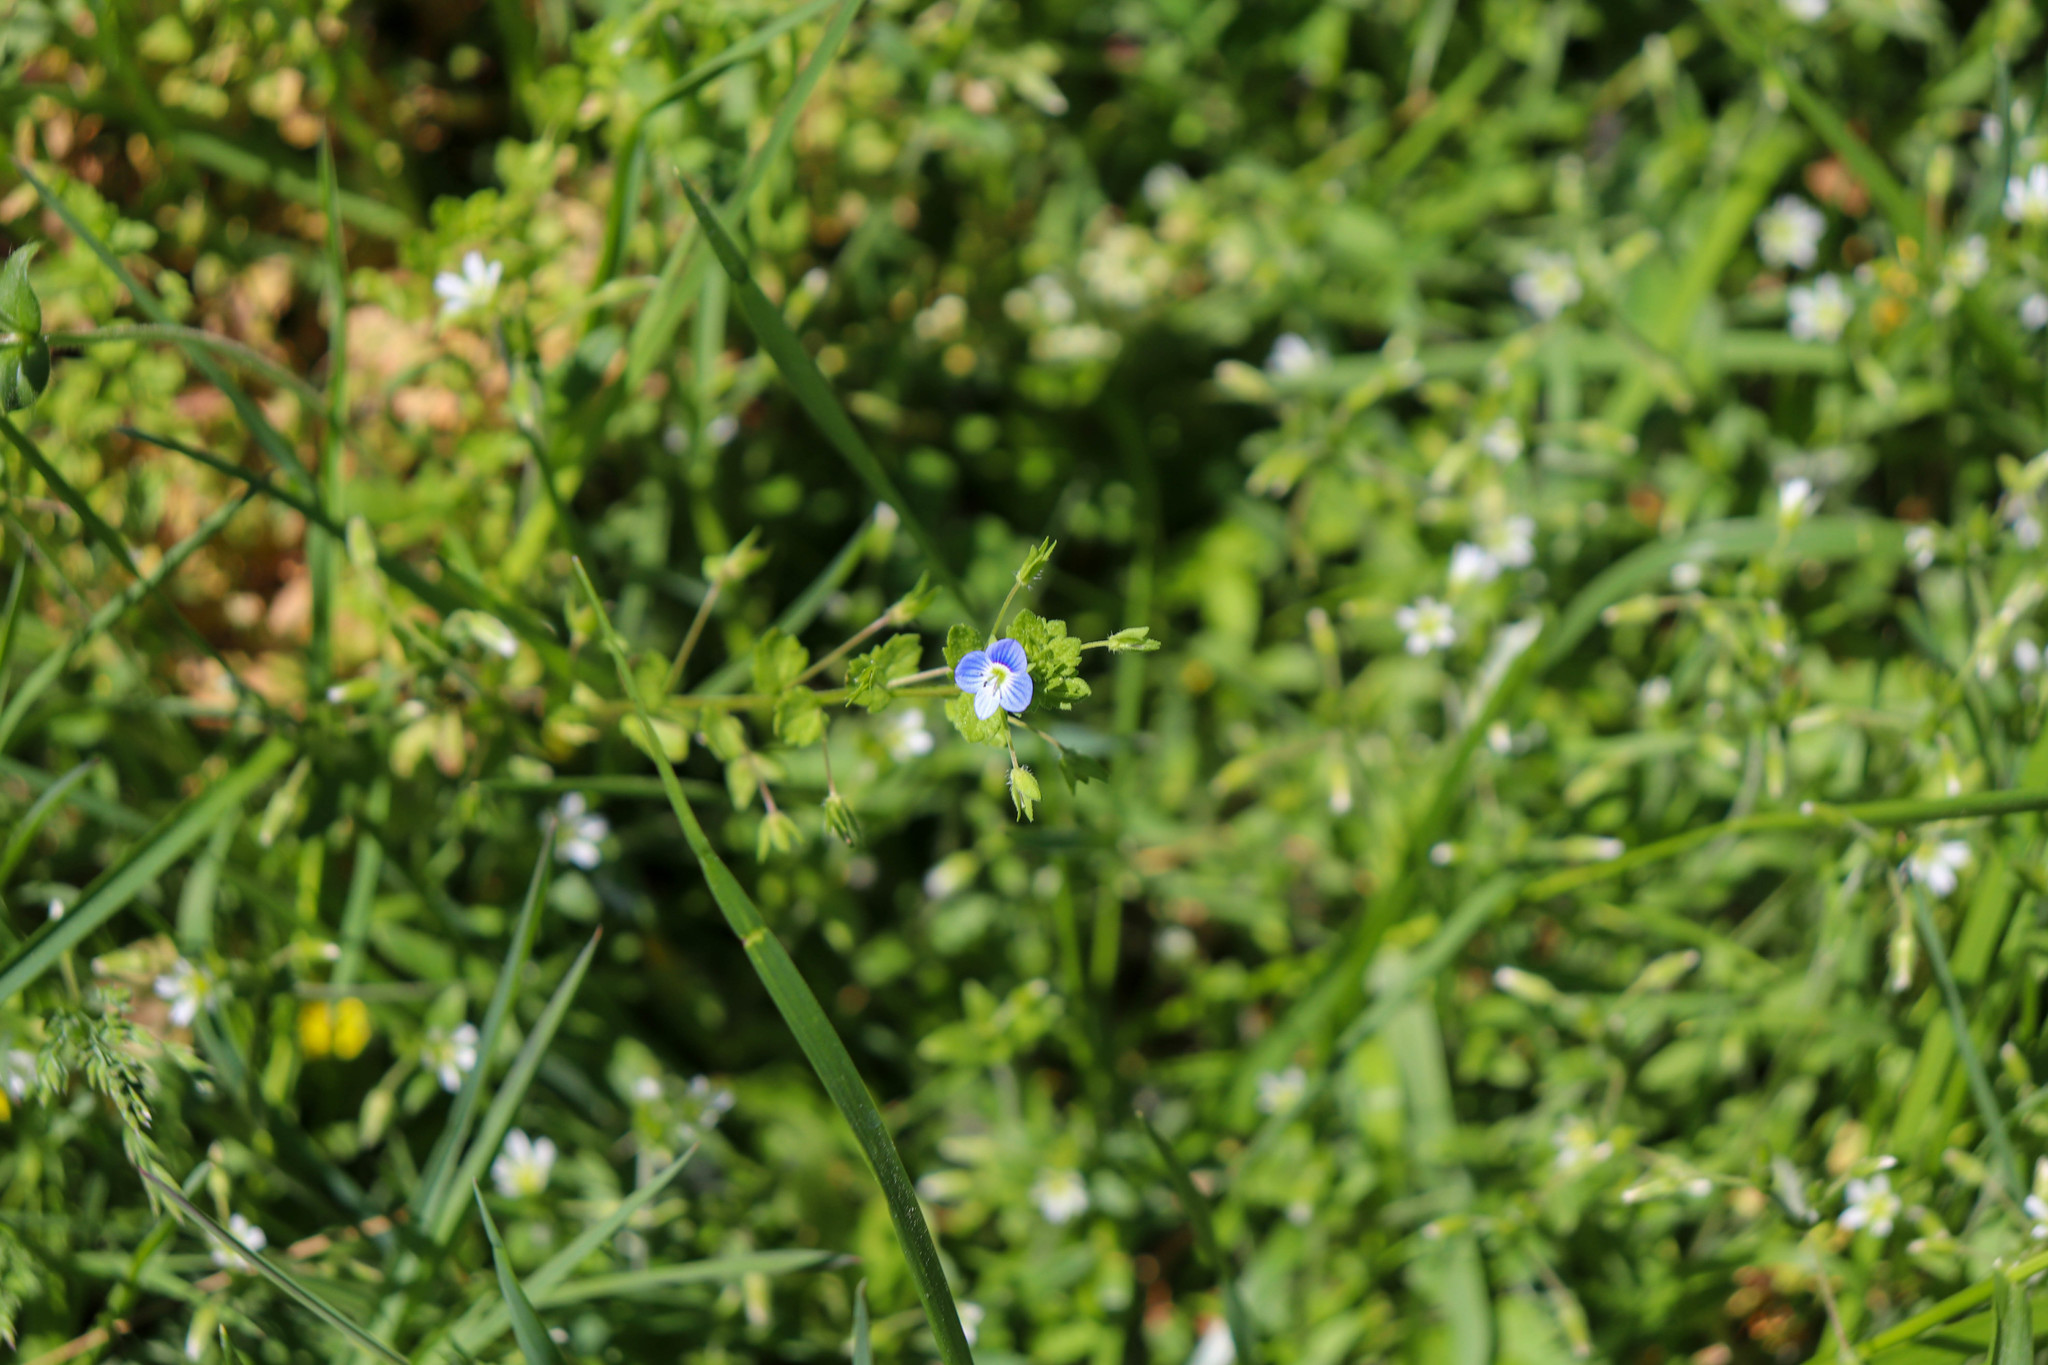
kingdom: Plantae
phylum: Tracheophyta
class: Magnoliopsida
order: Lamiales
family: Plantaginaceae
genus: Veronica
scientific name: Veronica persica
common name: Common field-speedwell
